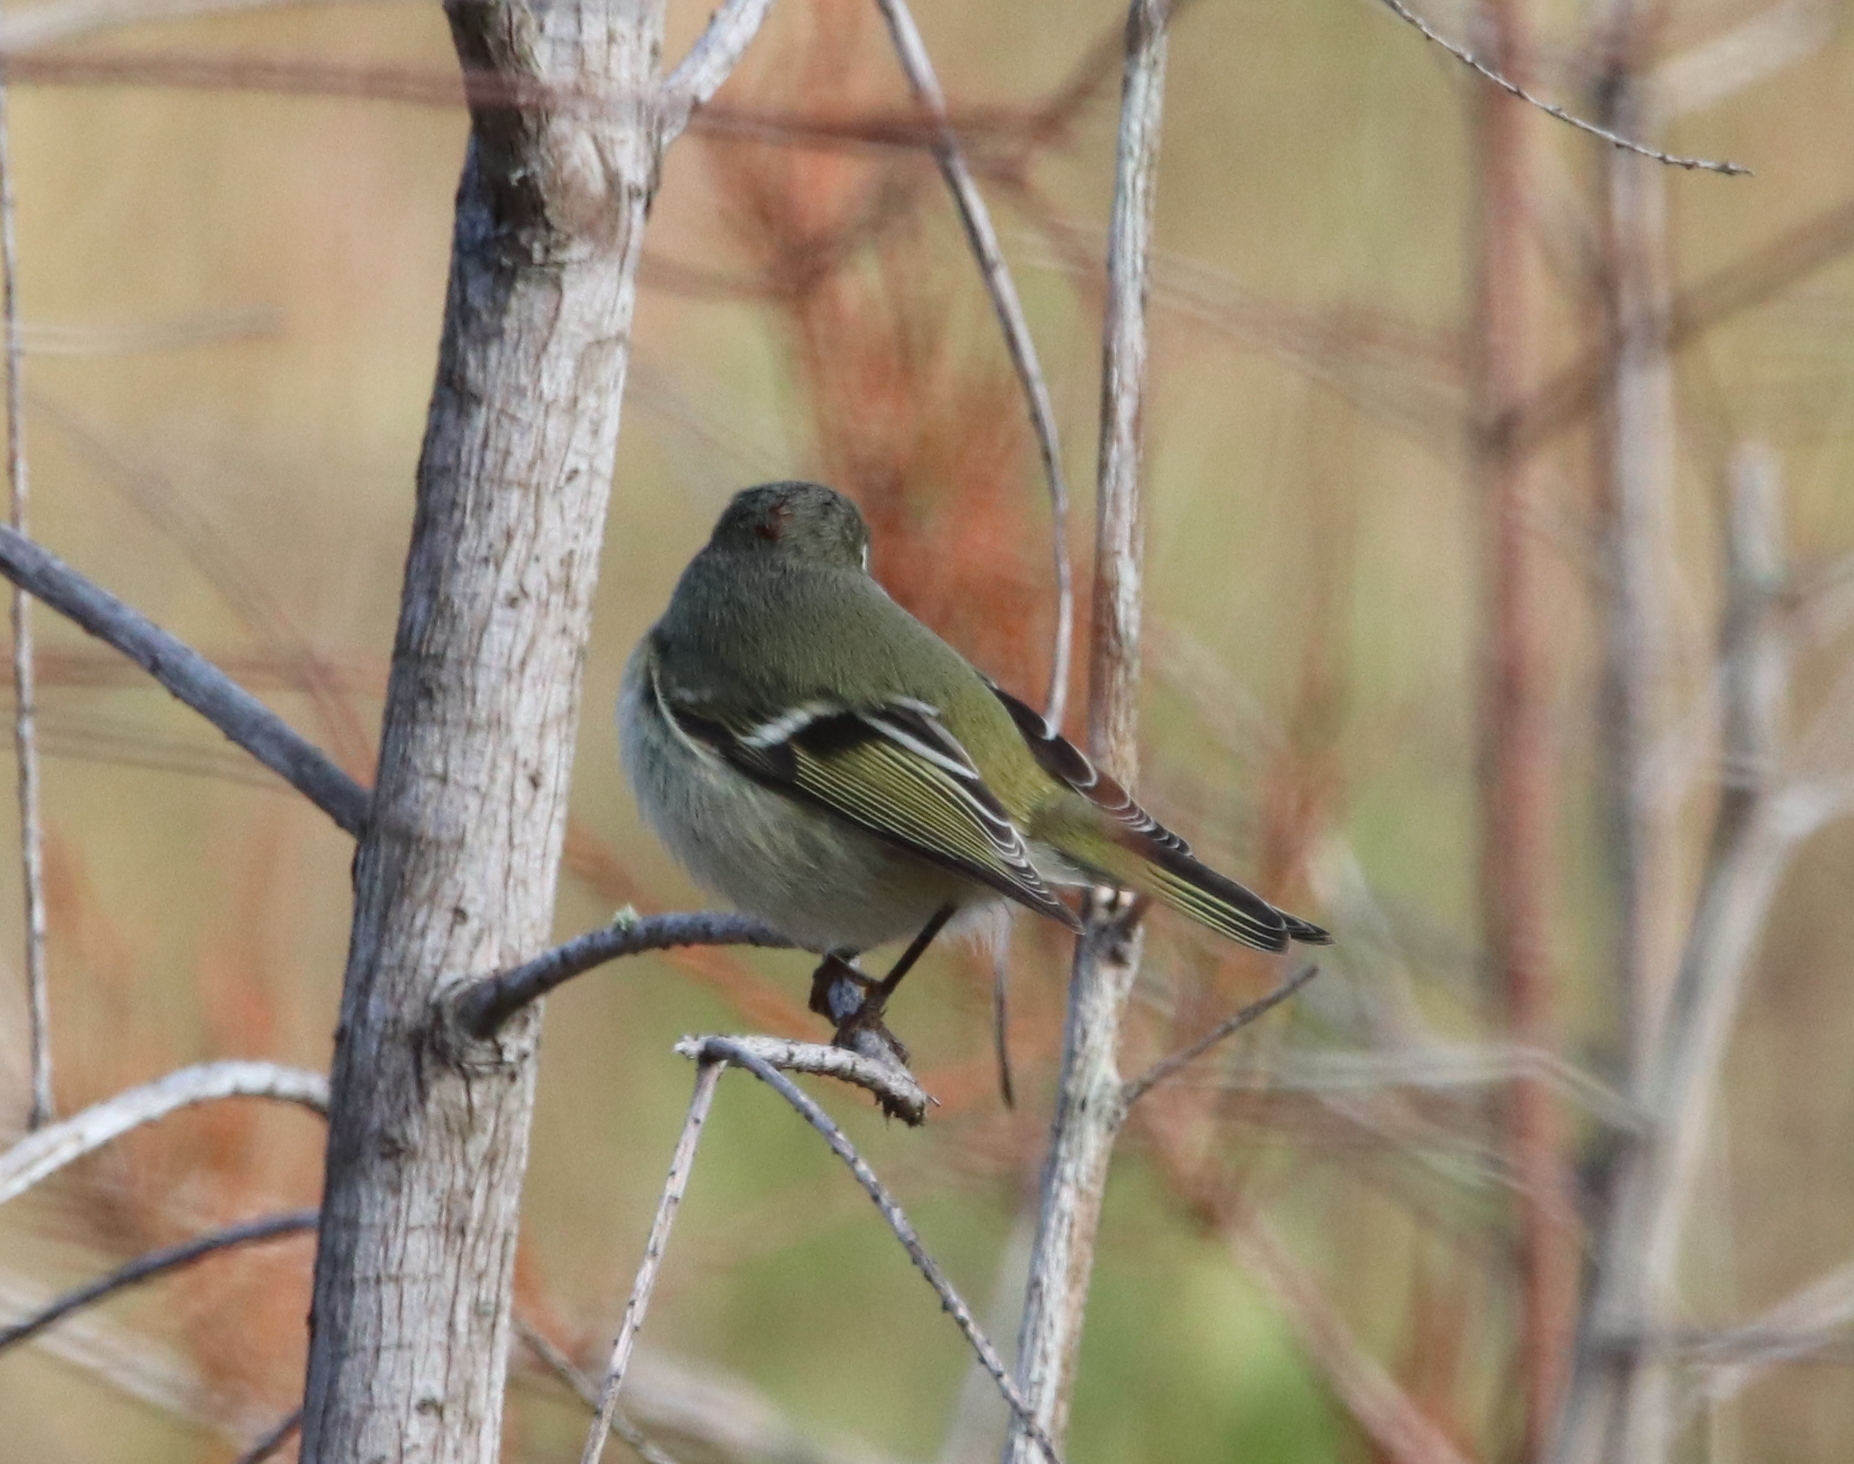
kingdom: Animalia
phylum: Chordata
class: Aves
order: Passeriformes
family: Regulidae
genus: Regulus
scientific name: Regulus calendula
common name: Ruby-crowned kinglet
